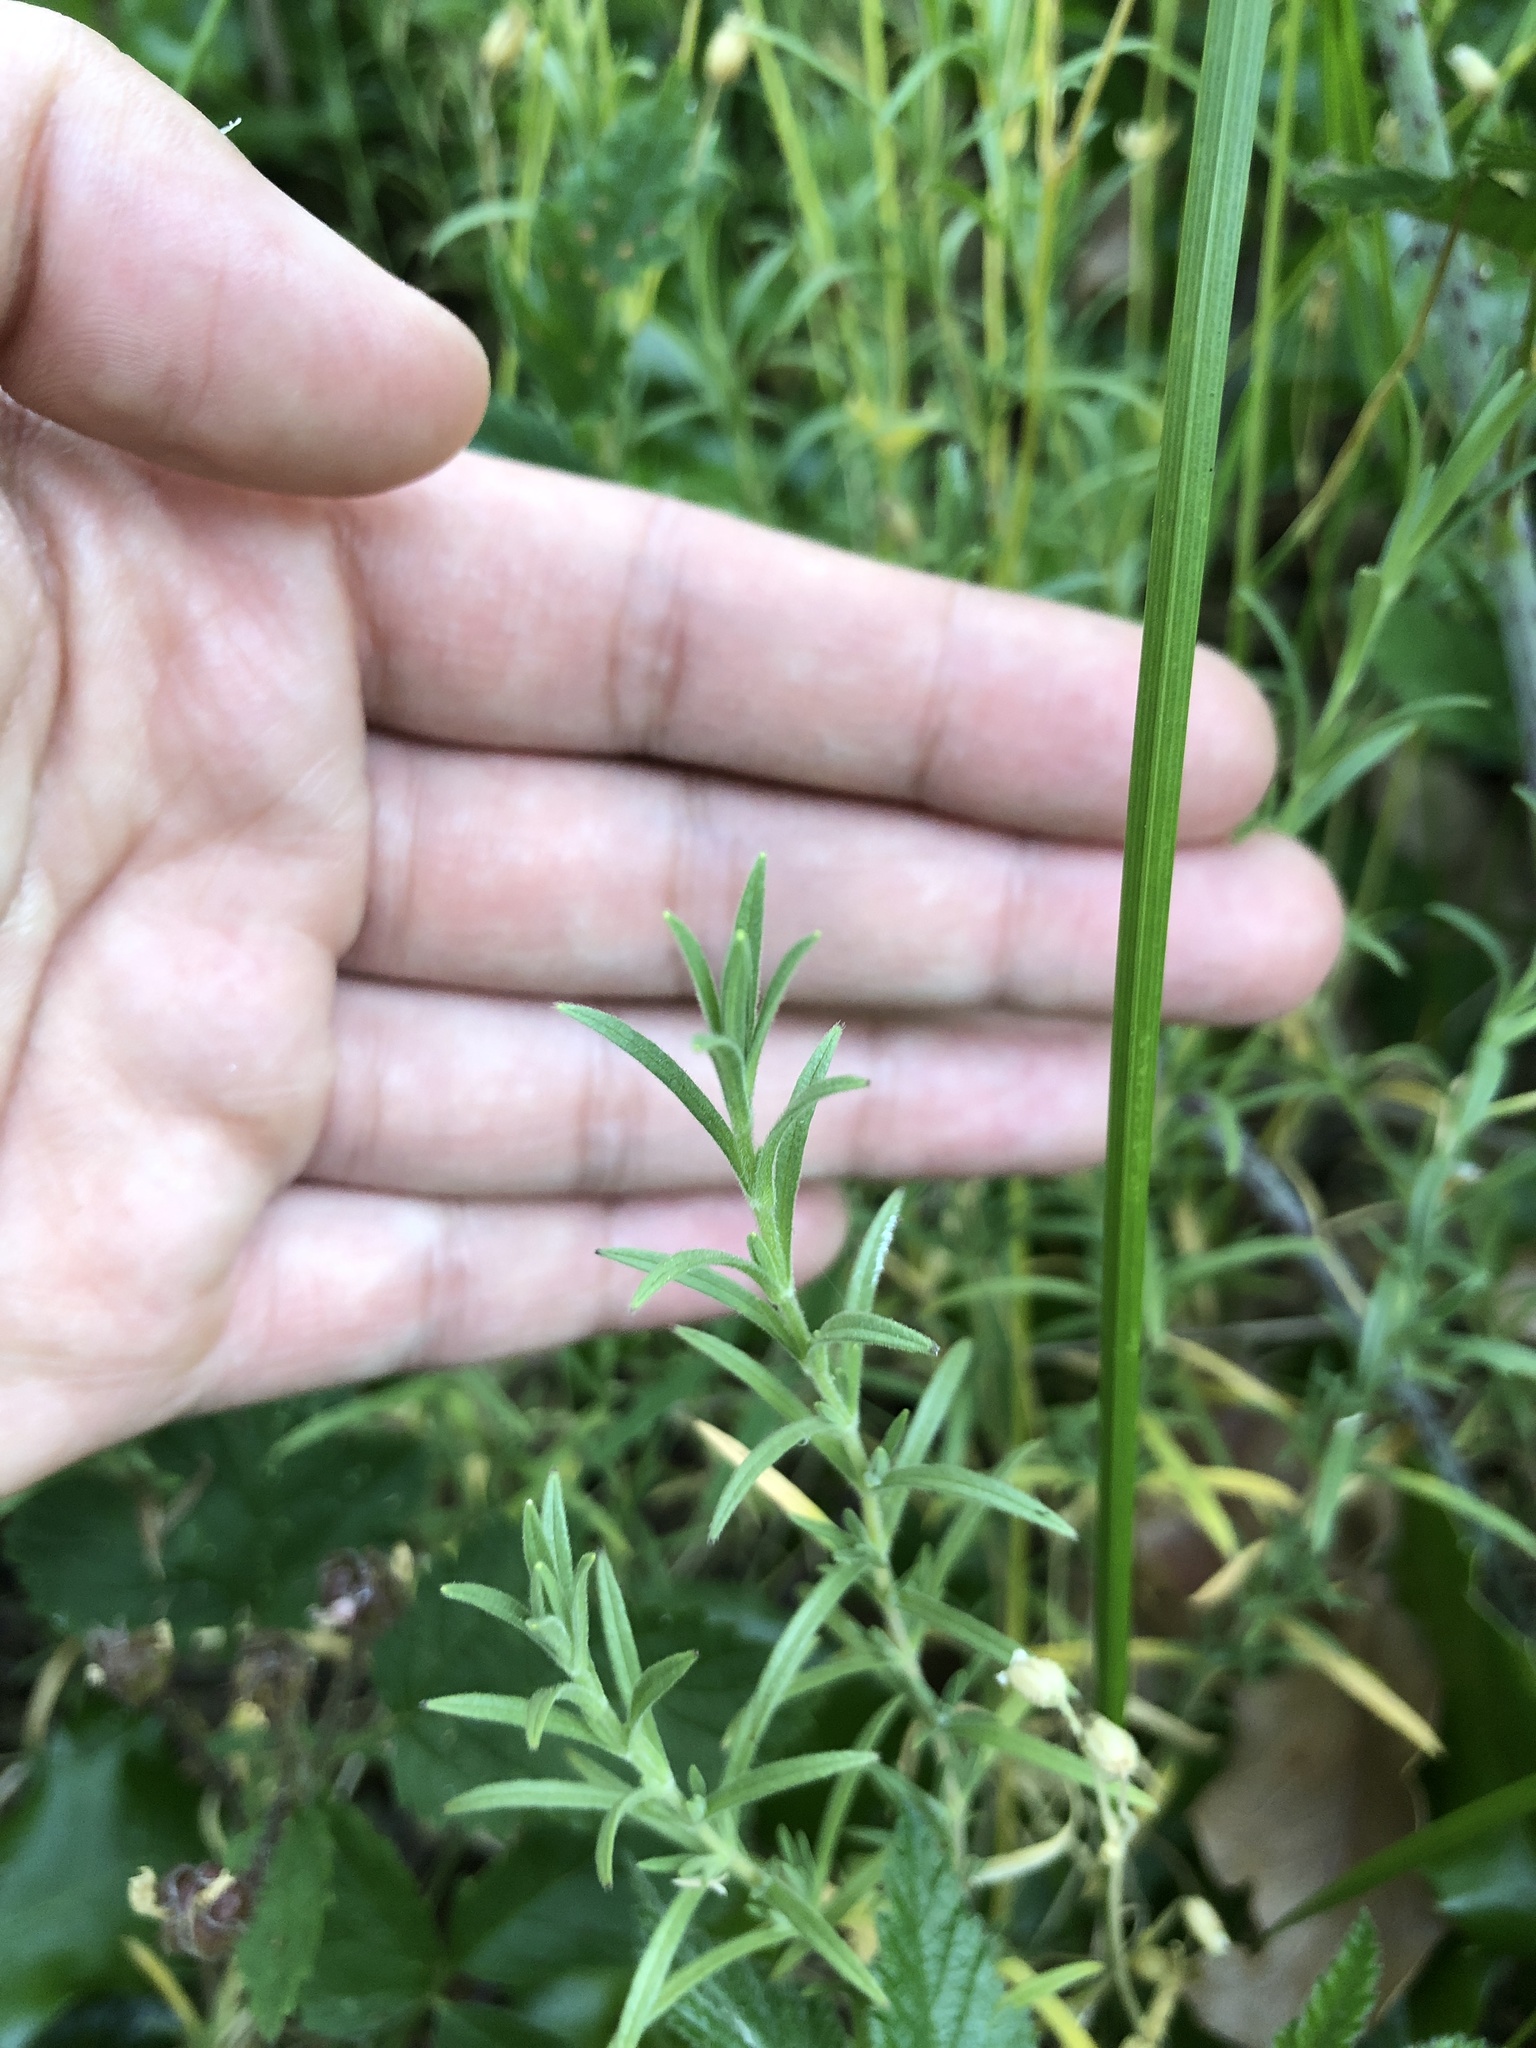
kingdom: Plantae
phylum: Tracheophyta
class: Magnoliopsida
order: Caryophyllales
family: Caryophyllaceae
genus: Cerastium
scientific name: Cerastium arvense
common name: Field mouse-ear
